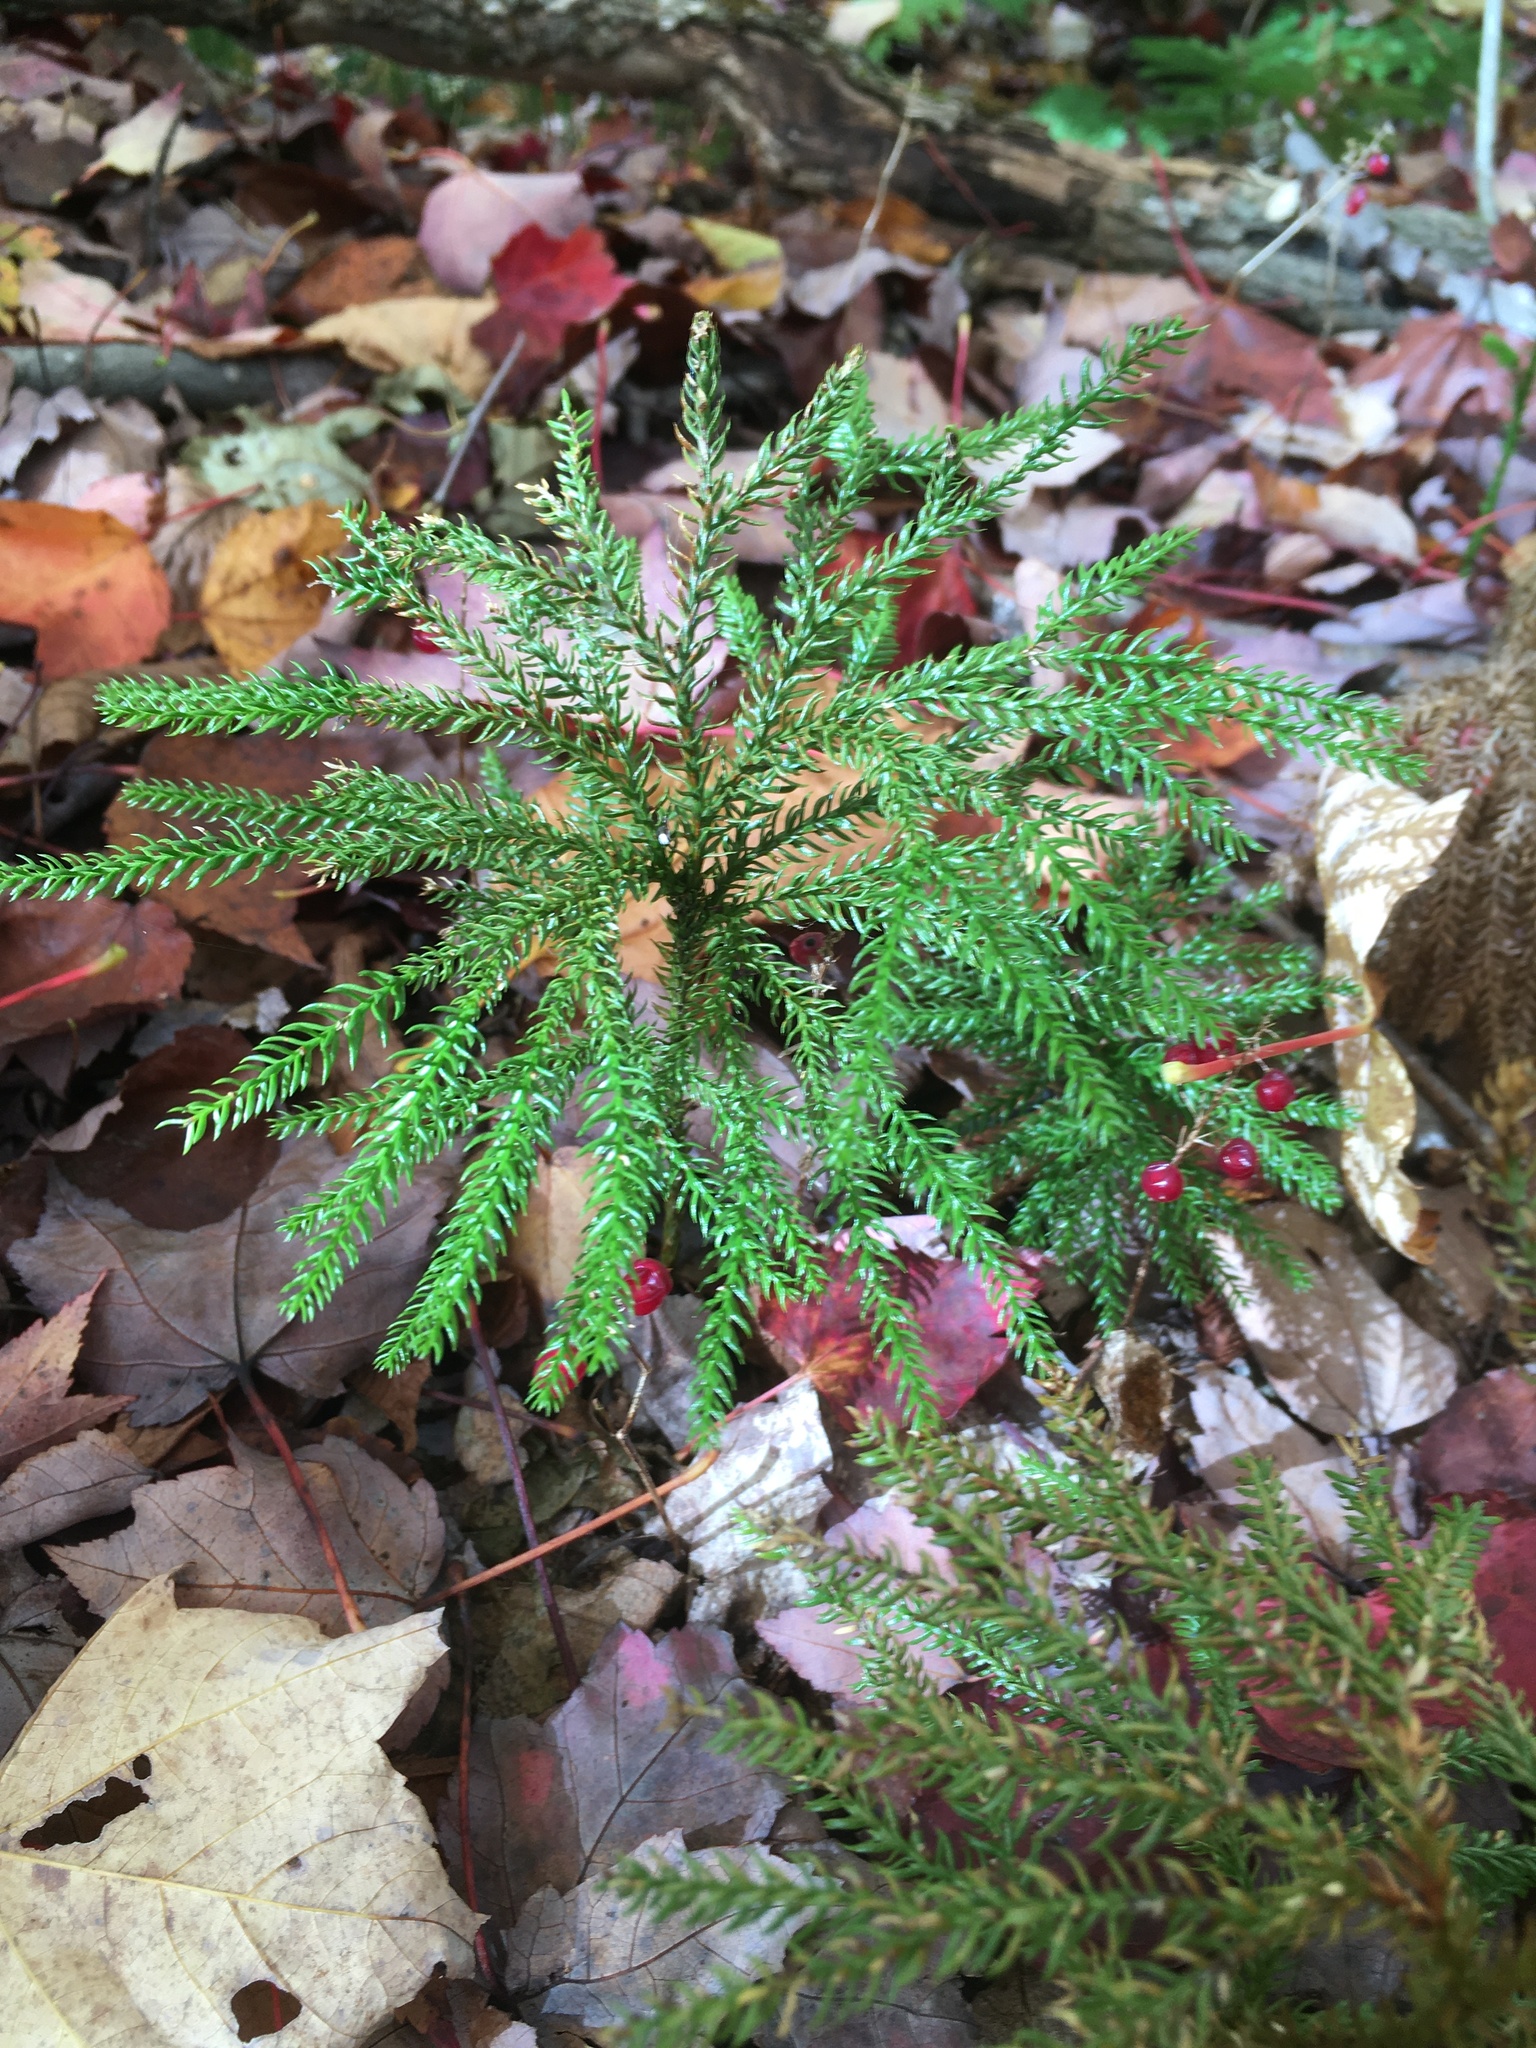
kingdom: Plantae
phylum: Tracheophyta
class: Lycopodiopsida
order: Lycopodiales
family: Lycopodiaceae
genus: Dendrolycopodium
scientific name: Dendrolycopodium
